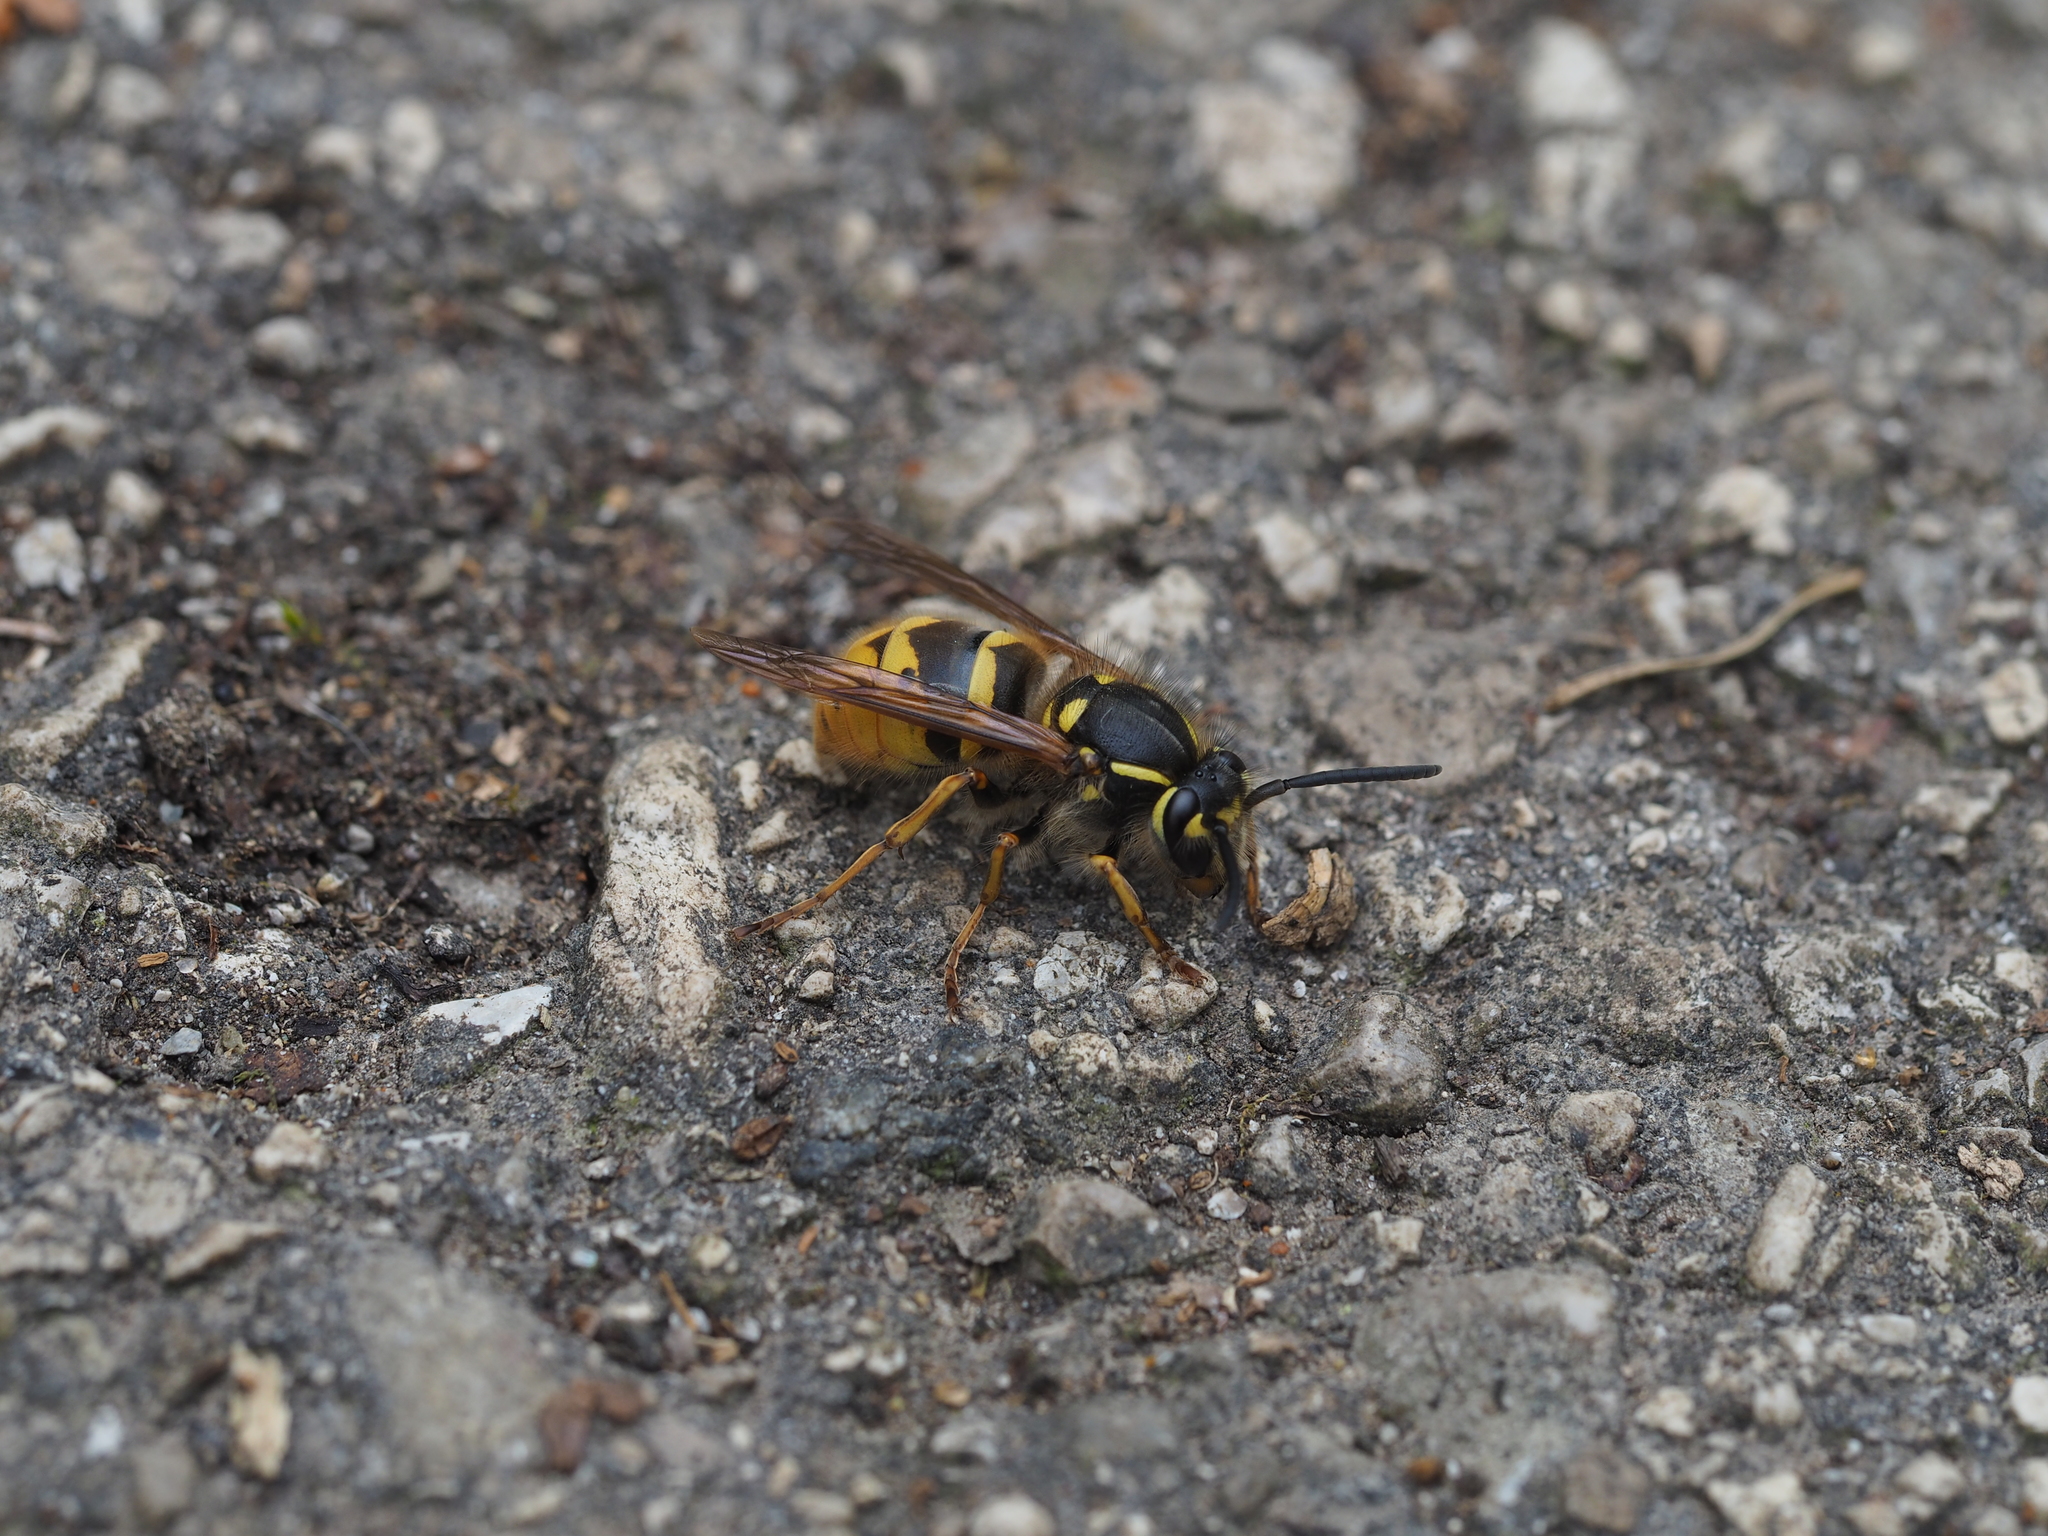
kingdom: Animalia
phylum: Arthropoda
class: Insecta
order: Hymenoptera
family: Vespidae
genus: Vespula
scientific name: Vespula vulgaris
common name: Common wasp
